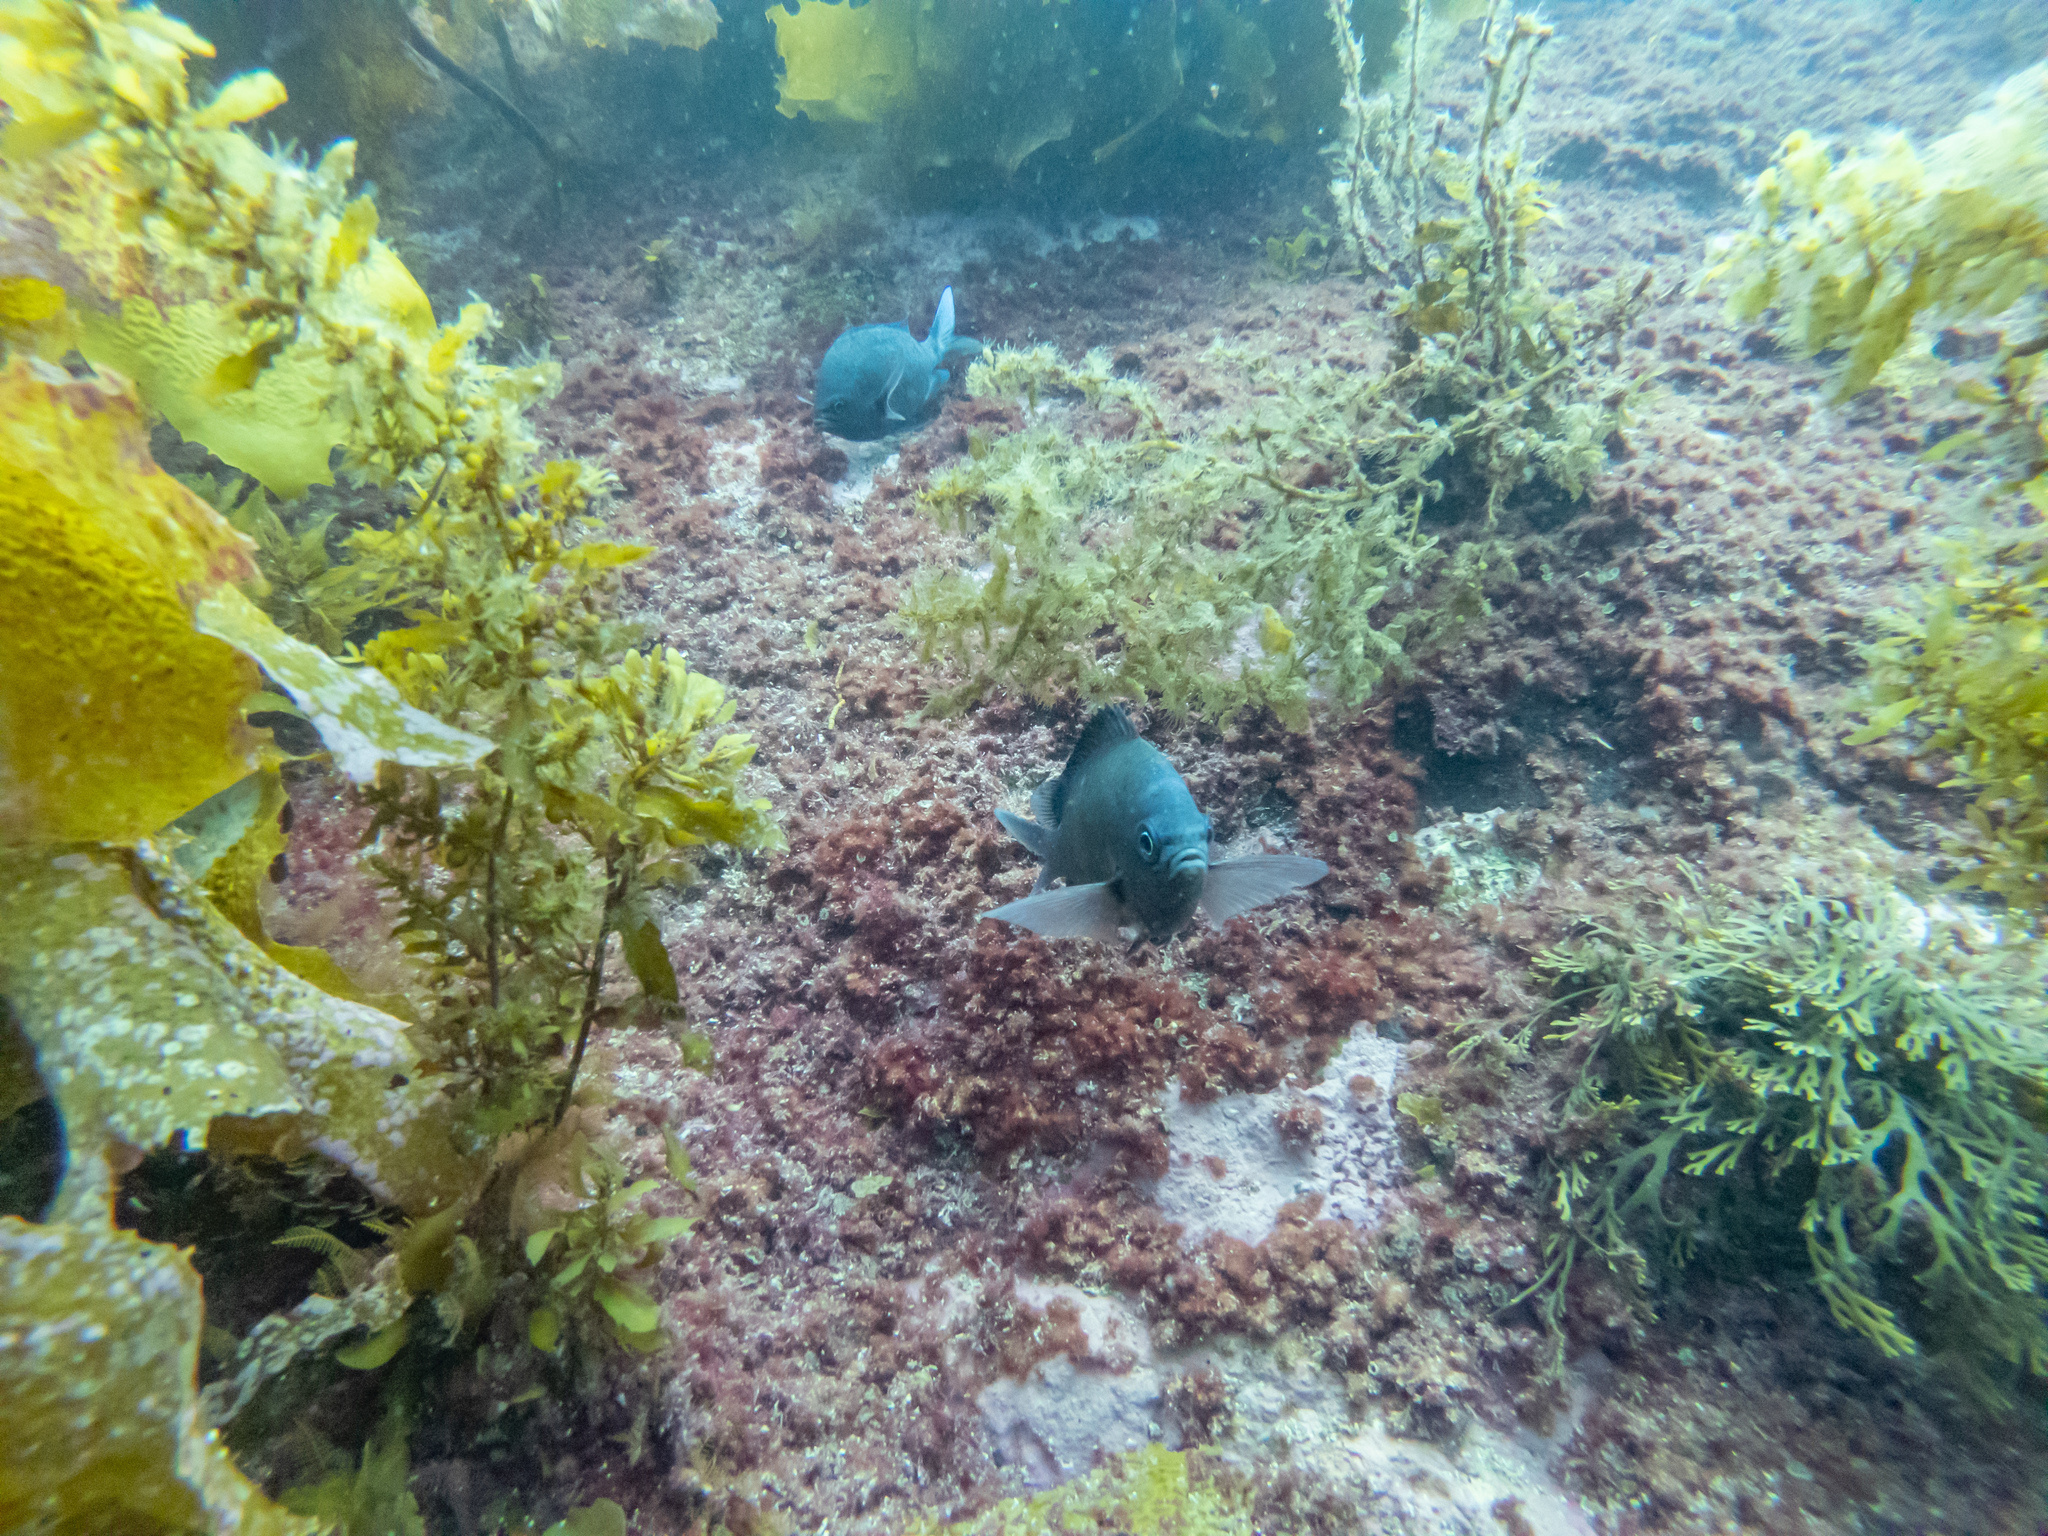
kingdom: Animalia
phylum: Chordata
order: Perciformes
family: Pomacentridae
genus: Chromis
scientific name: Chromis dispilus
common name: Demoiselle
